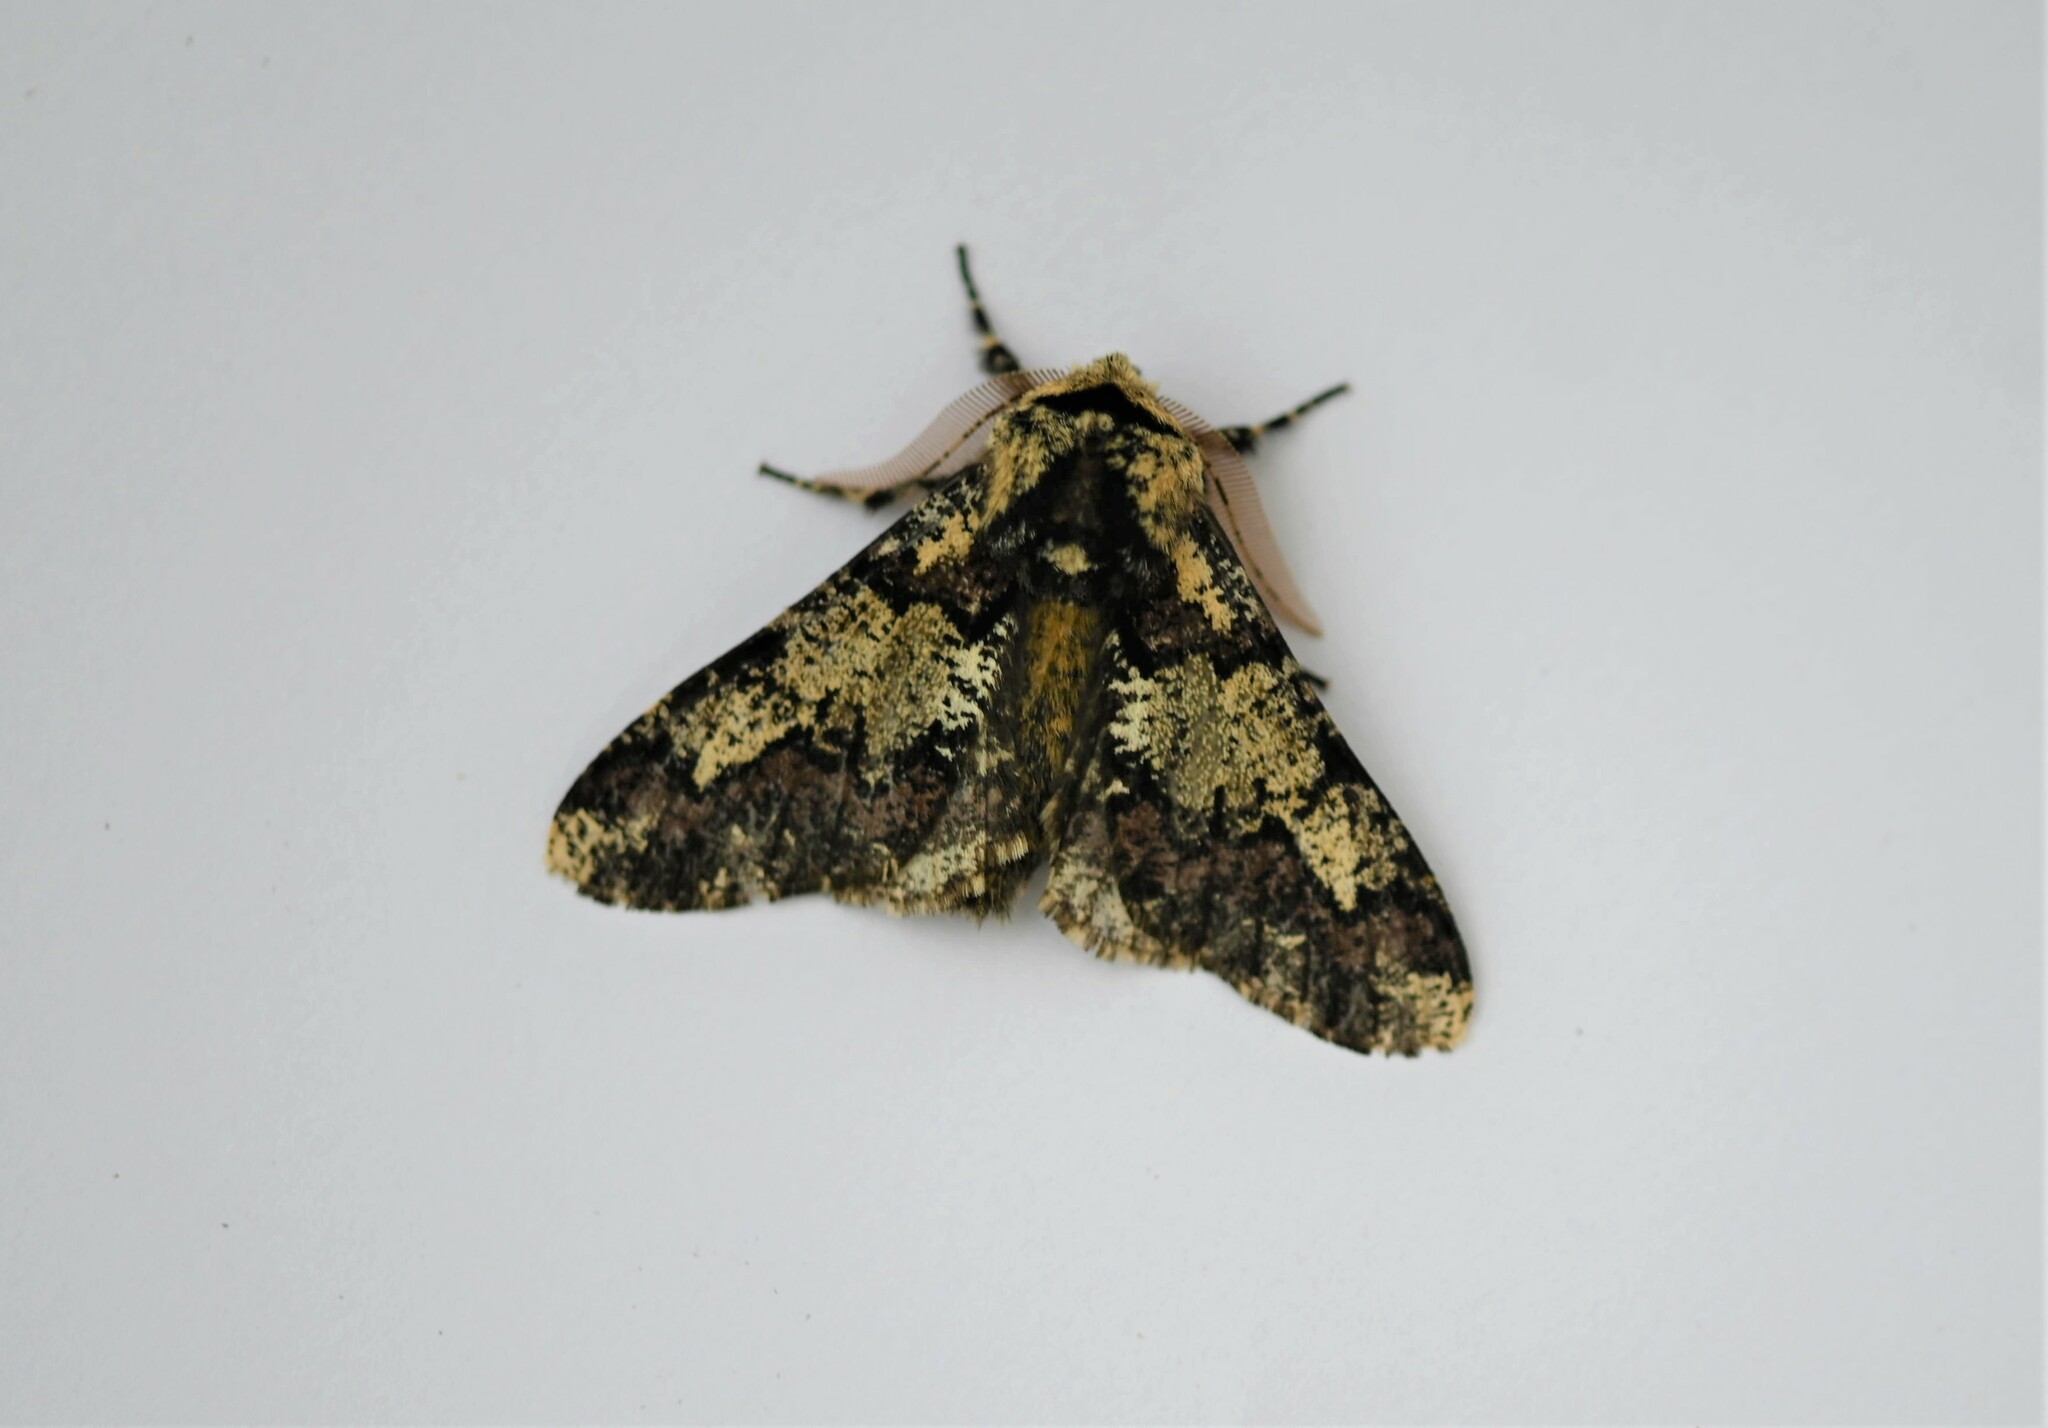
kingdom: Animalia
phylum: Arthropoda
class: Insecta
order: Lepidoptera
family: Geometridae
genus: Biston
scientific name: Biston strataria
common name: Oak beauty
